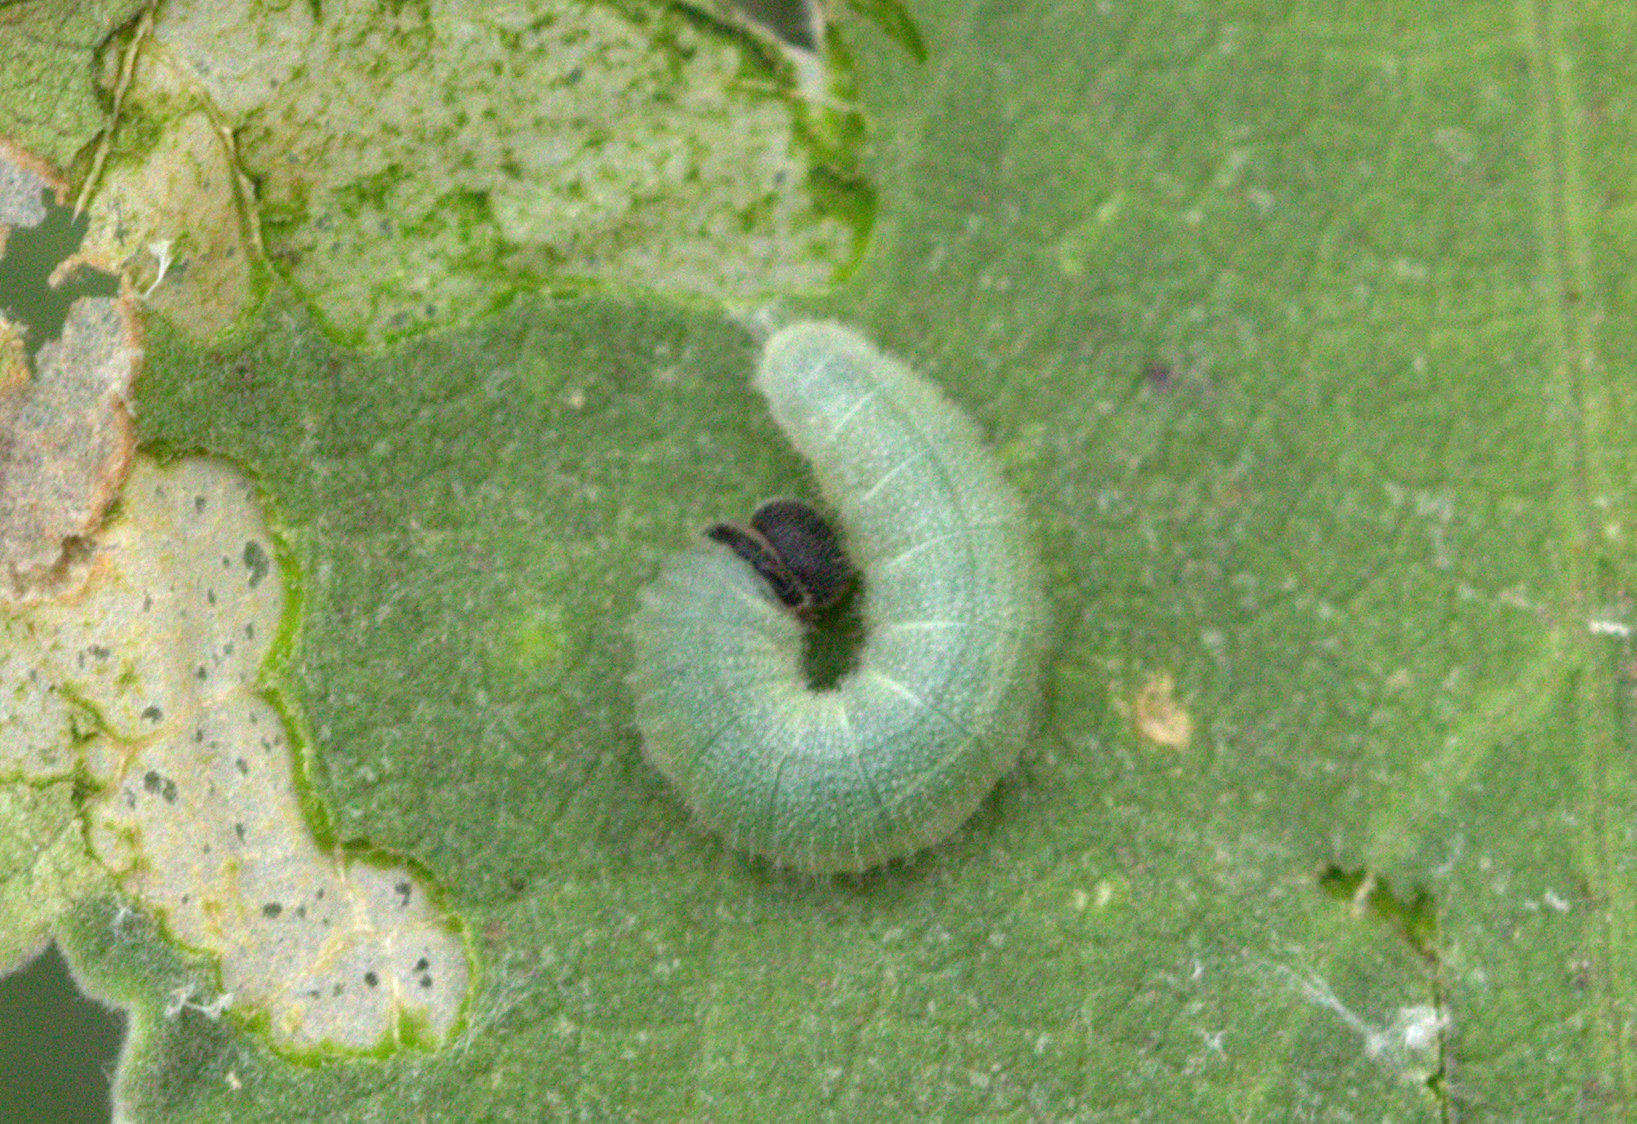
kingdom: Animalia
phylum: Arthropoda
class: Insecta
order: Lepidoptera
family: Hesperiidae
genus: Gomalia
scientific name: Gomalia elma
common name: Green-marbled skipper
